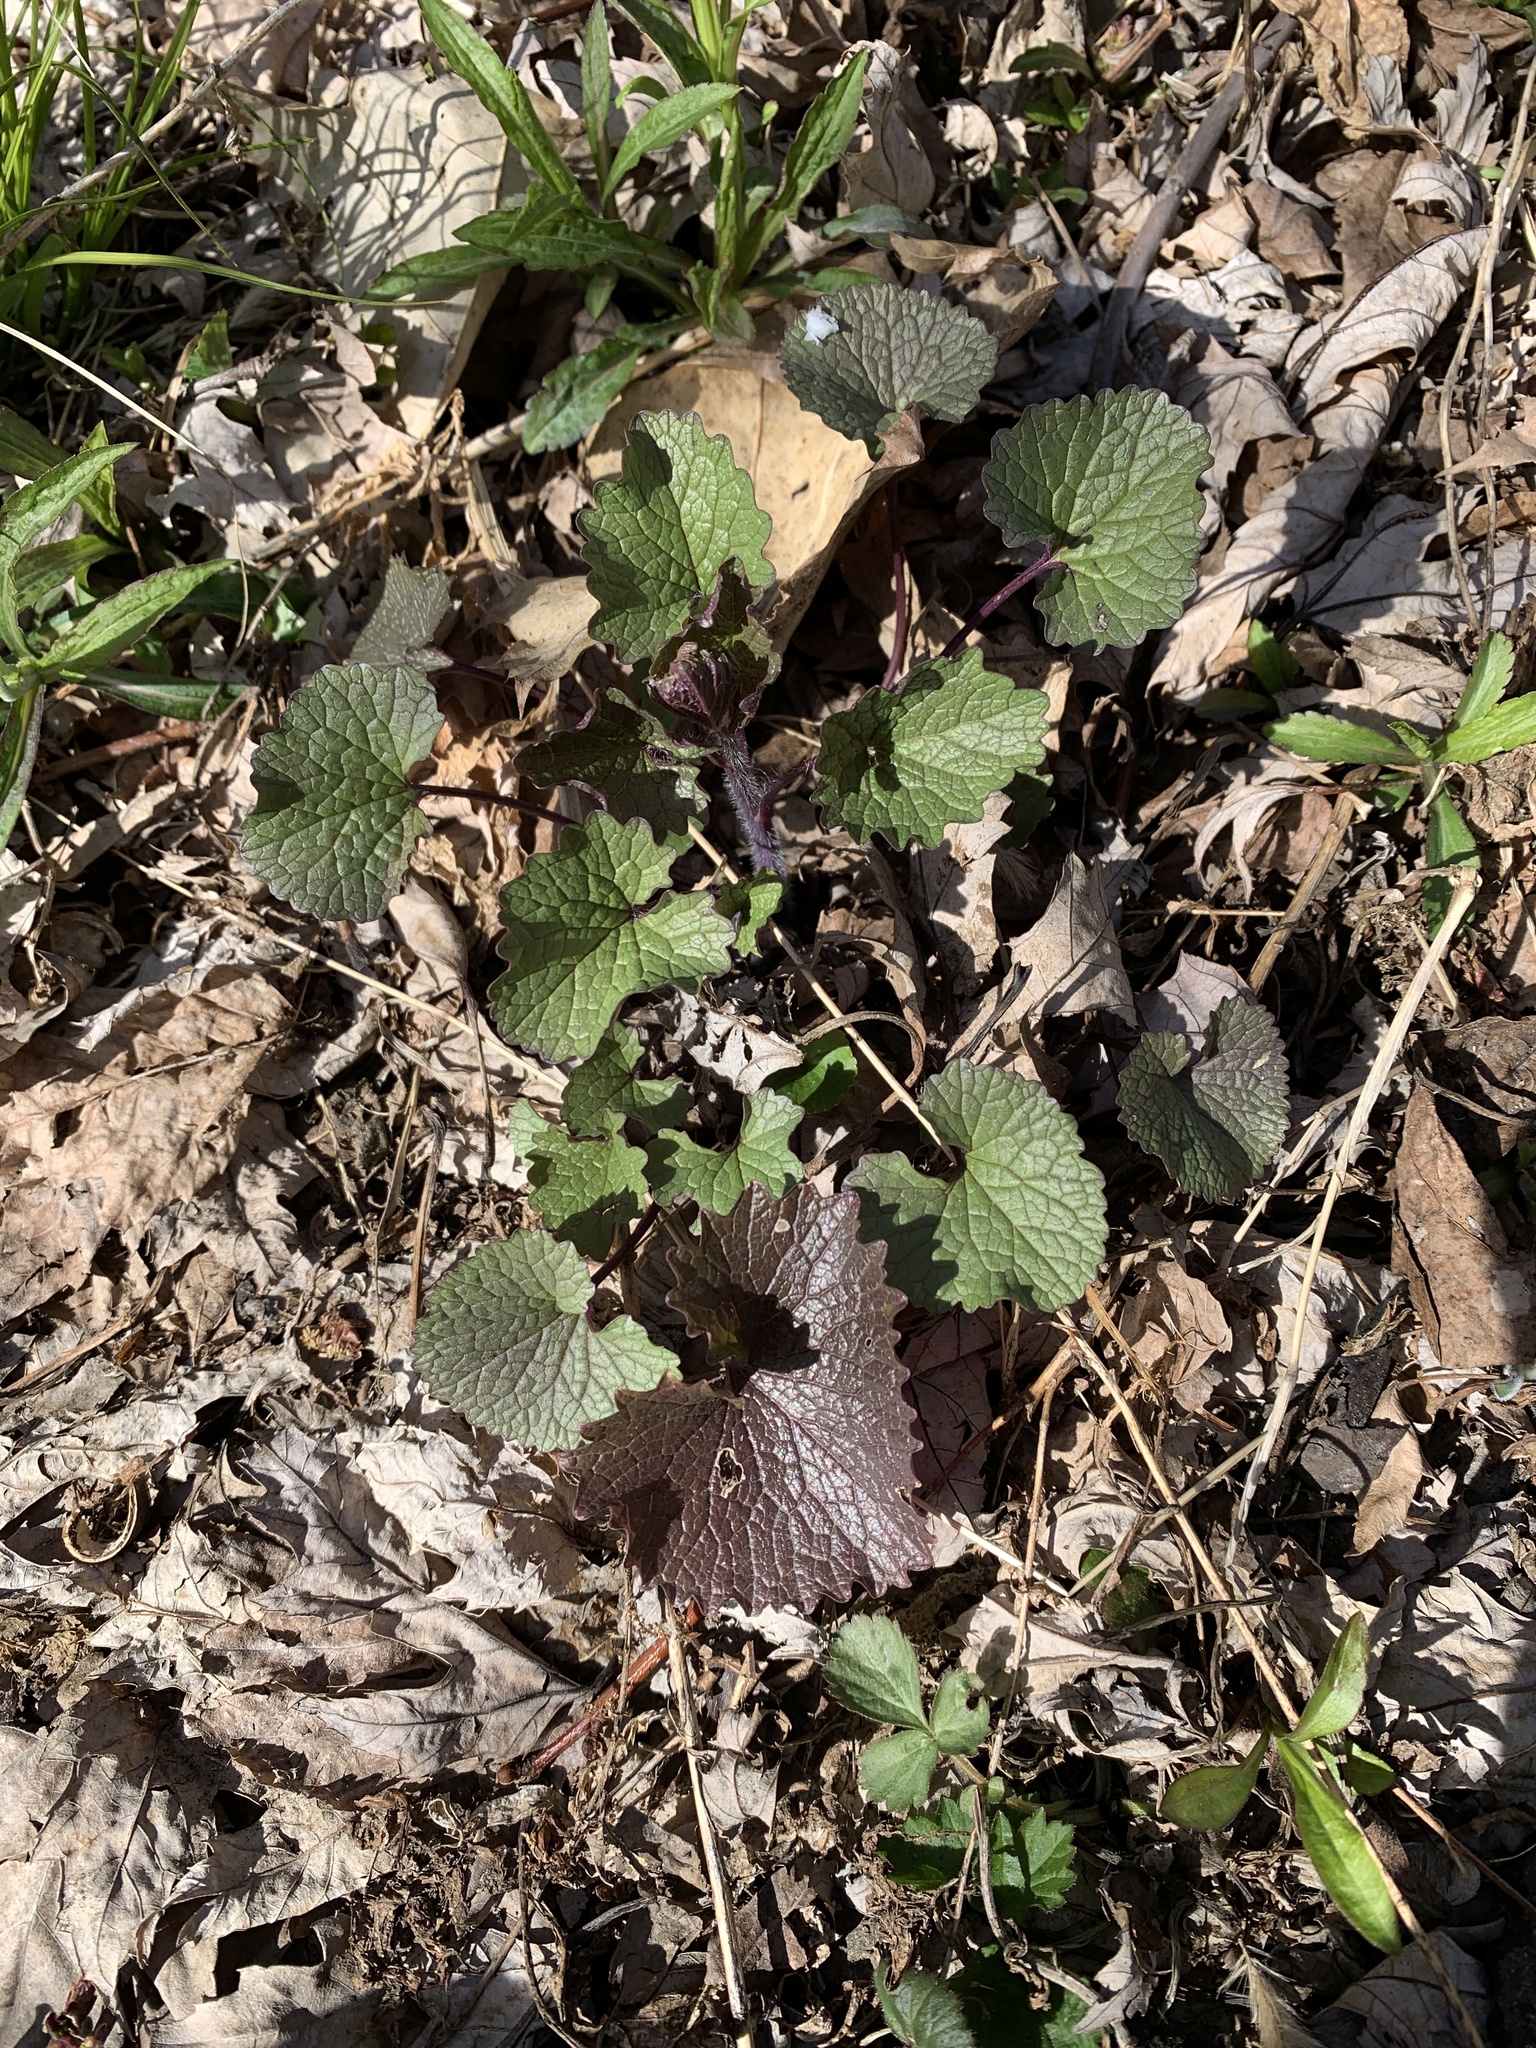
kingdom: Plantae
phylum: Tracheophyta
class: Magnoliopsida
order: Brassicales
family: Brassicaceae
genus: Alliaria
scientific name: Alliaria petiolata
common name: Garlic mustard
